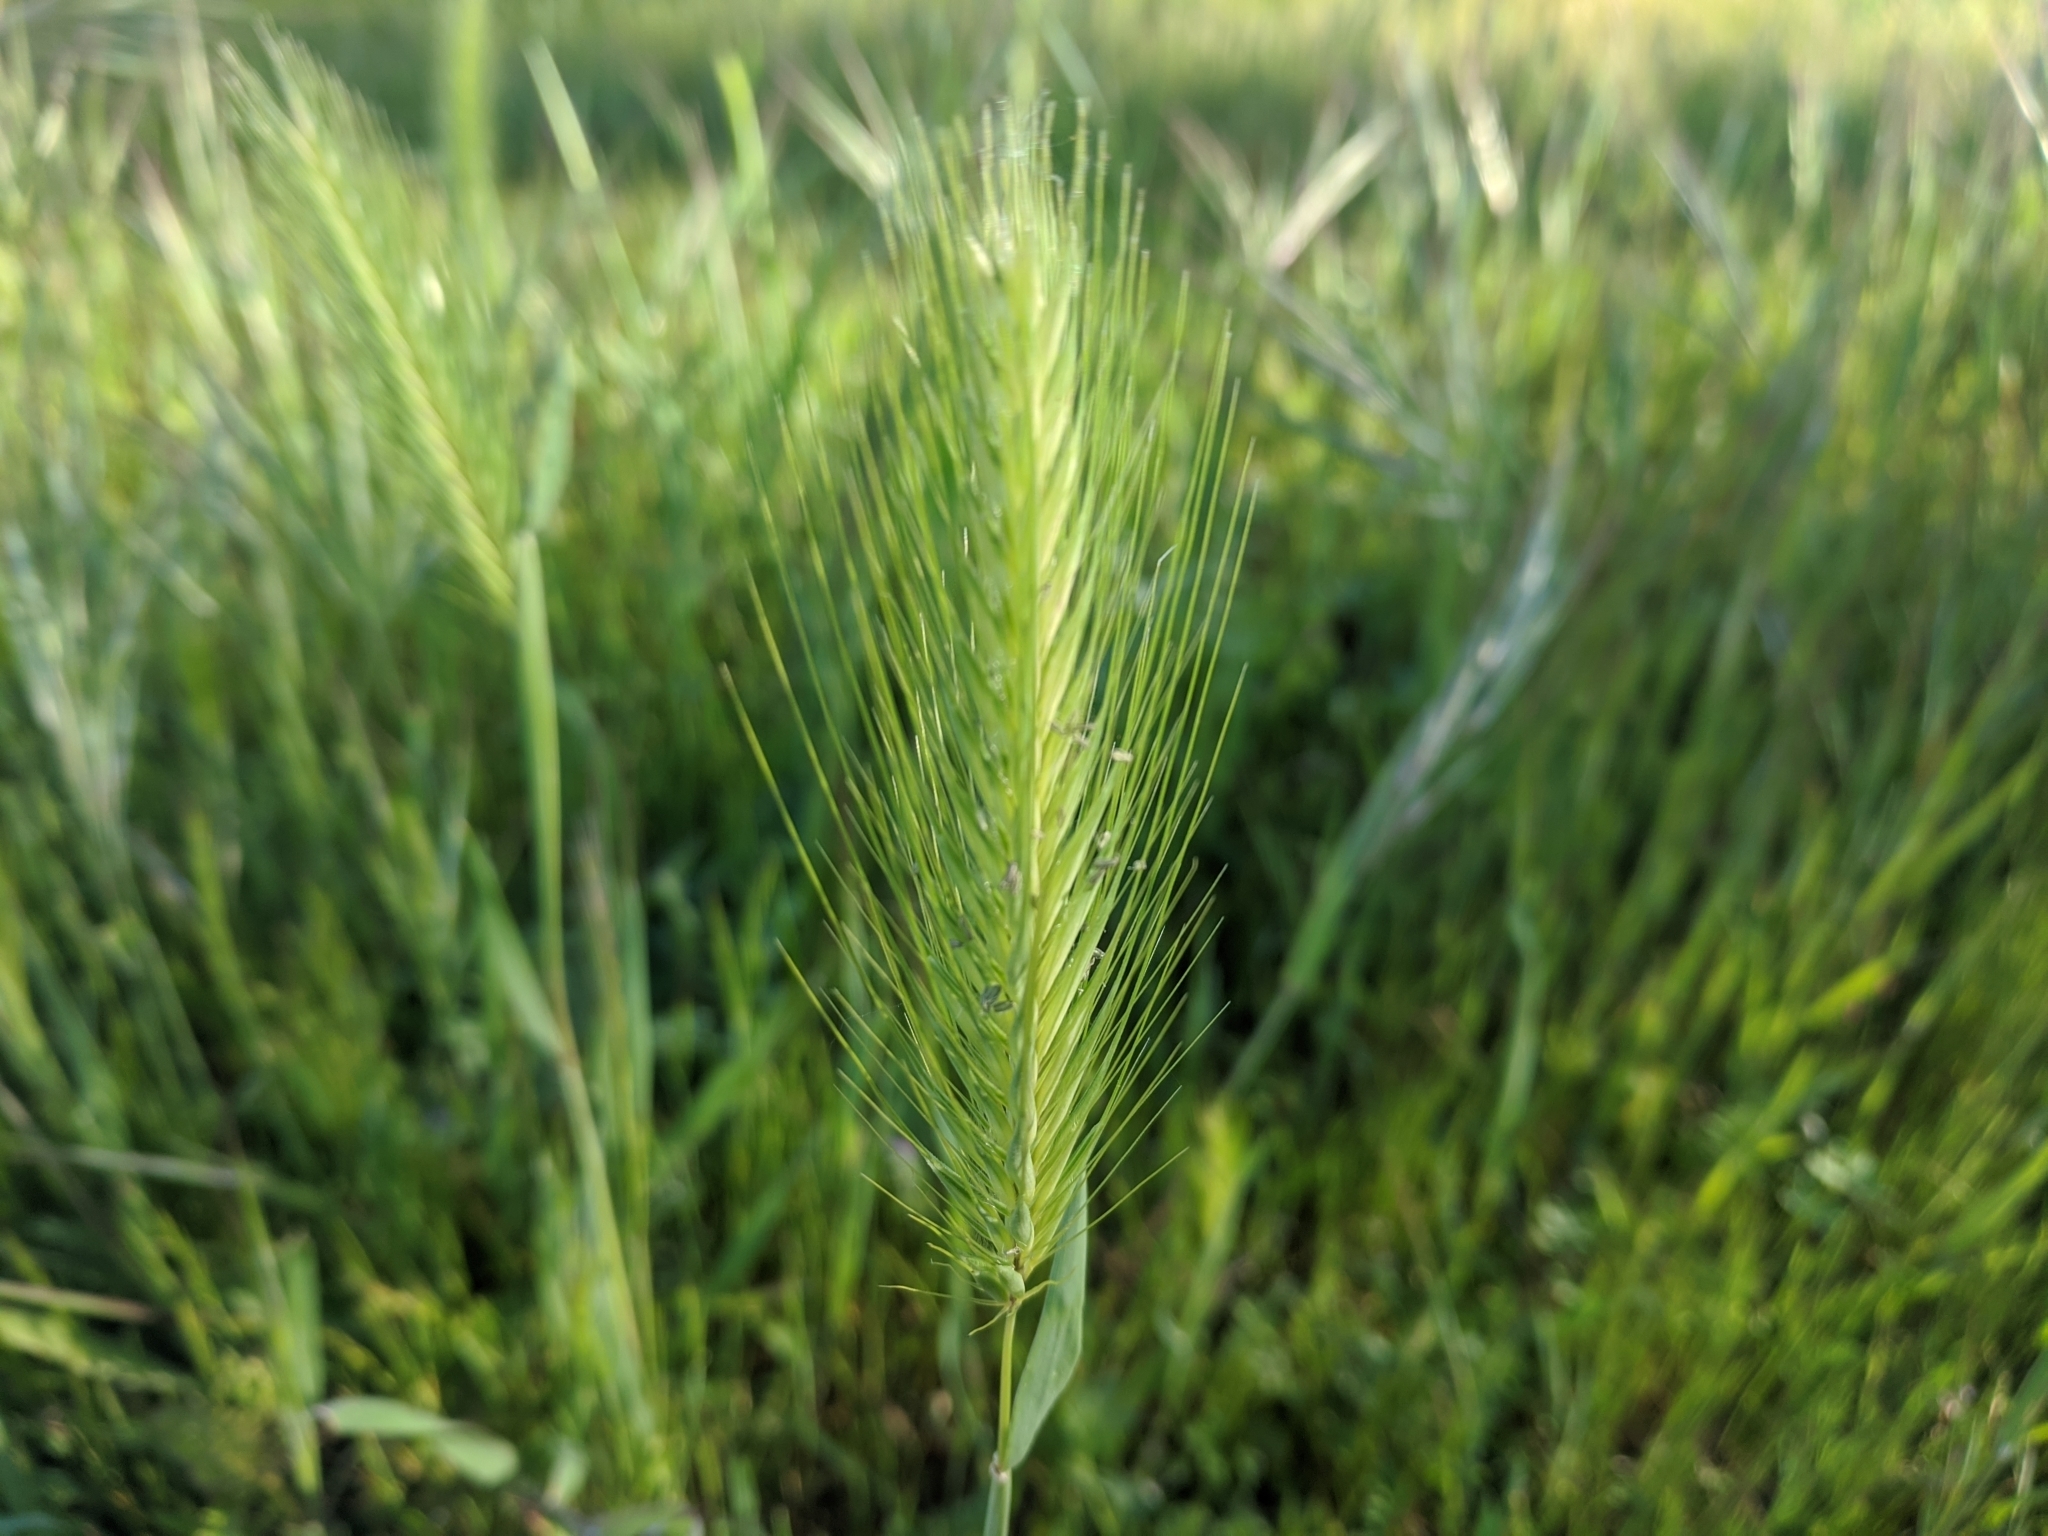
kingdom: Plantae
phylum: Tracheophyta
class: Liliopsida
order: Poales
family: Poaceae
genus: Hordeum
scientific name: Hordeum murinum
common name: Wall barley
